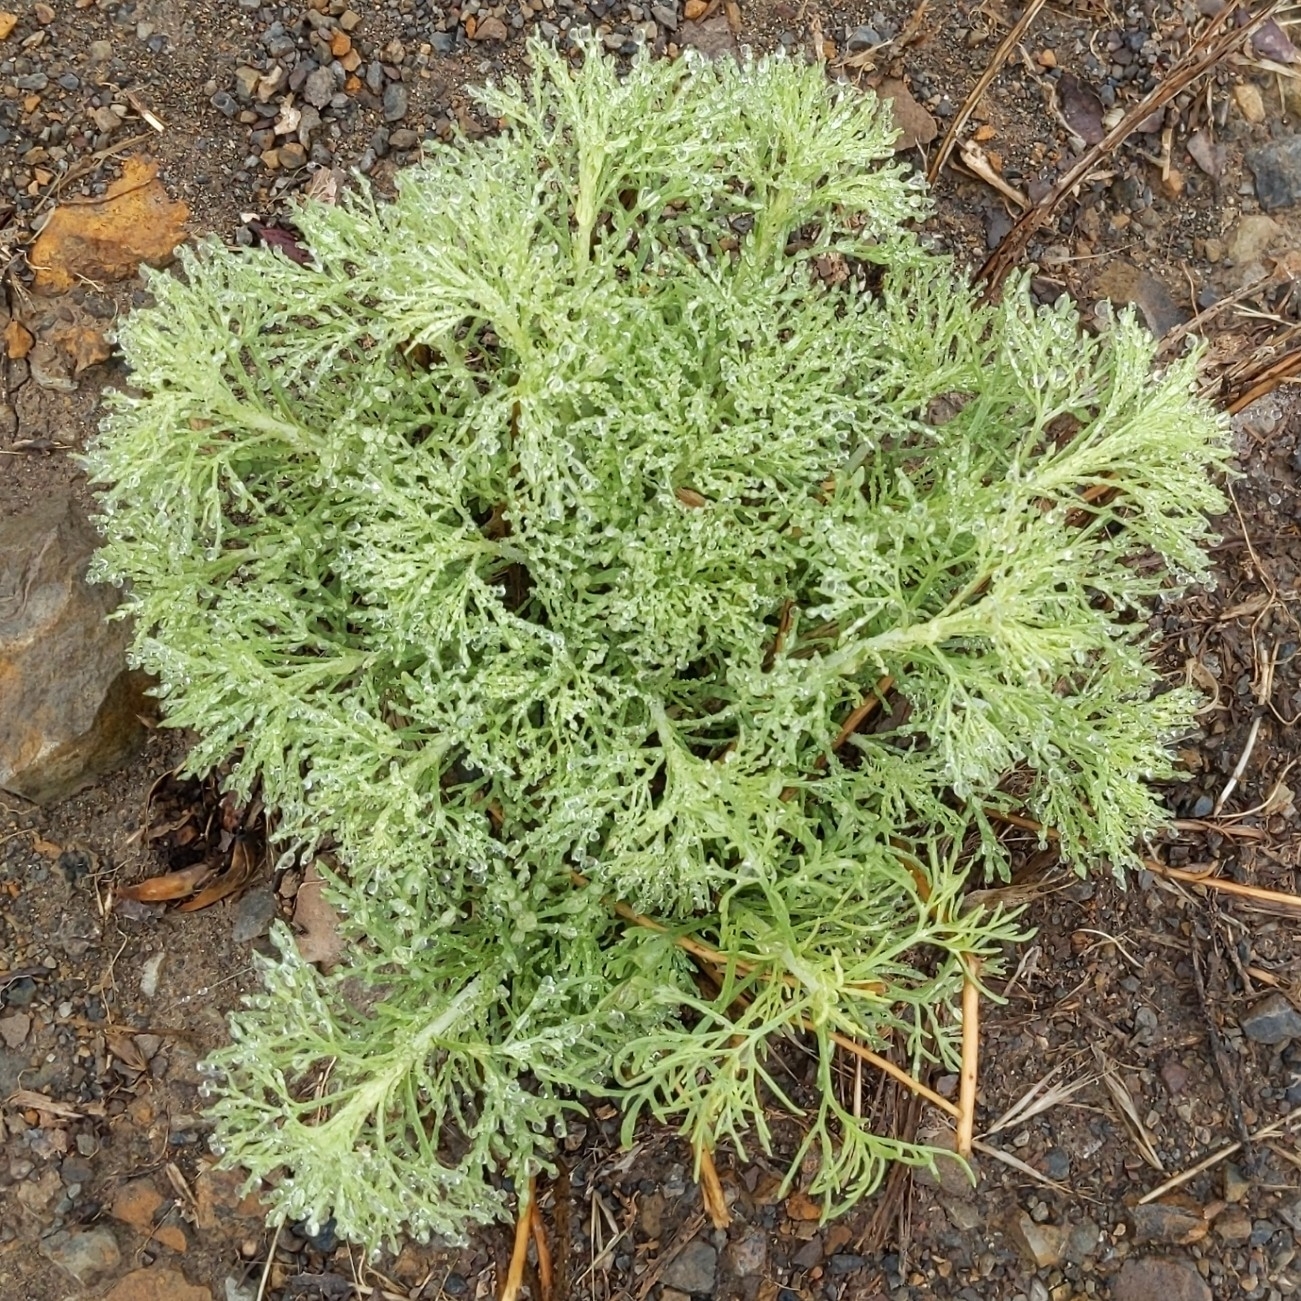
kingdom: Plantae
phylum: Tracheophyta
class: Magnoliopsida
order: Asterales
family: Asteraceae
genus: Artemisia
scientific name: Artemisia californica
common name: California sagebrush
